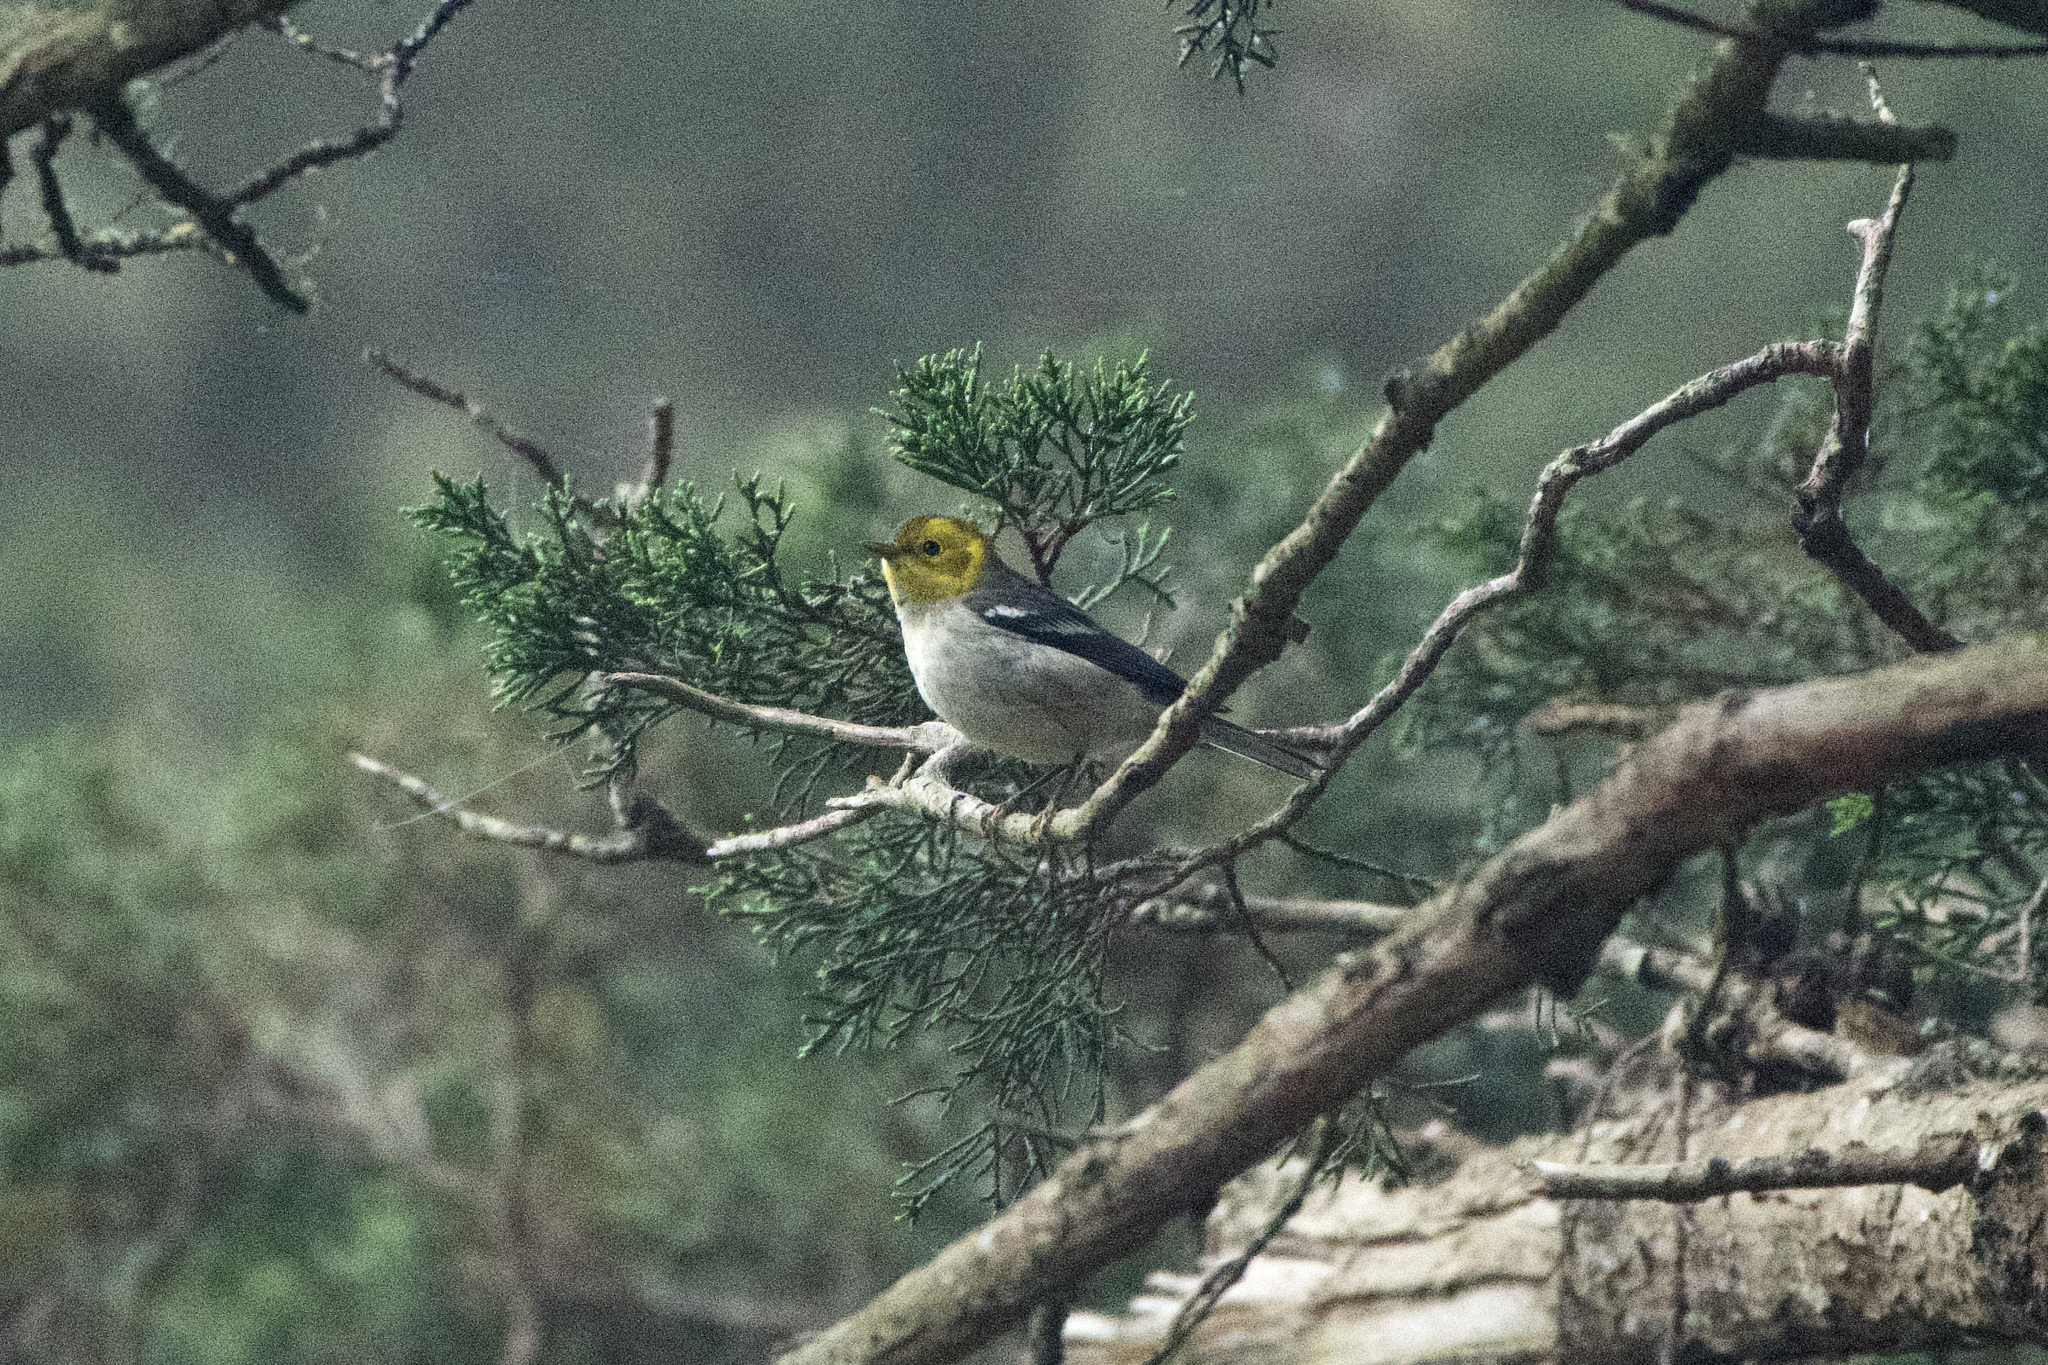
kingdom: Animalia
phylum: Chordata
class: Aves
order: Passeriformes
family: Parulidae
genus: Setophaga
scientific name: Setophaga occidentalis
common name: Hermit warbler
